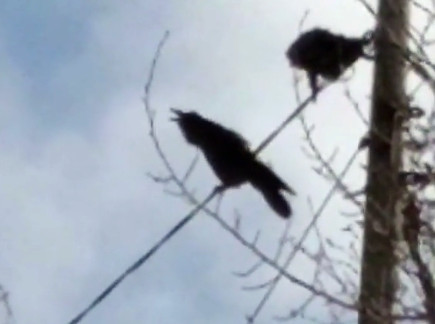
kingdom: Animalia
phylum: Chordata
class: Aves
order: Passeriformes
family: Corvidae
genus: Corvus
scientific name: Corvus corax
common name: Common raven
